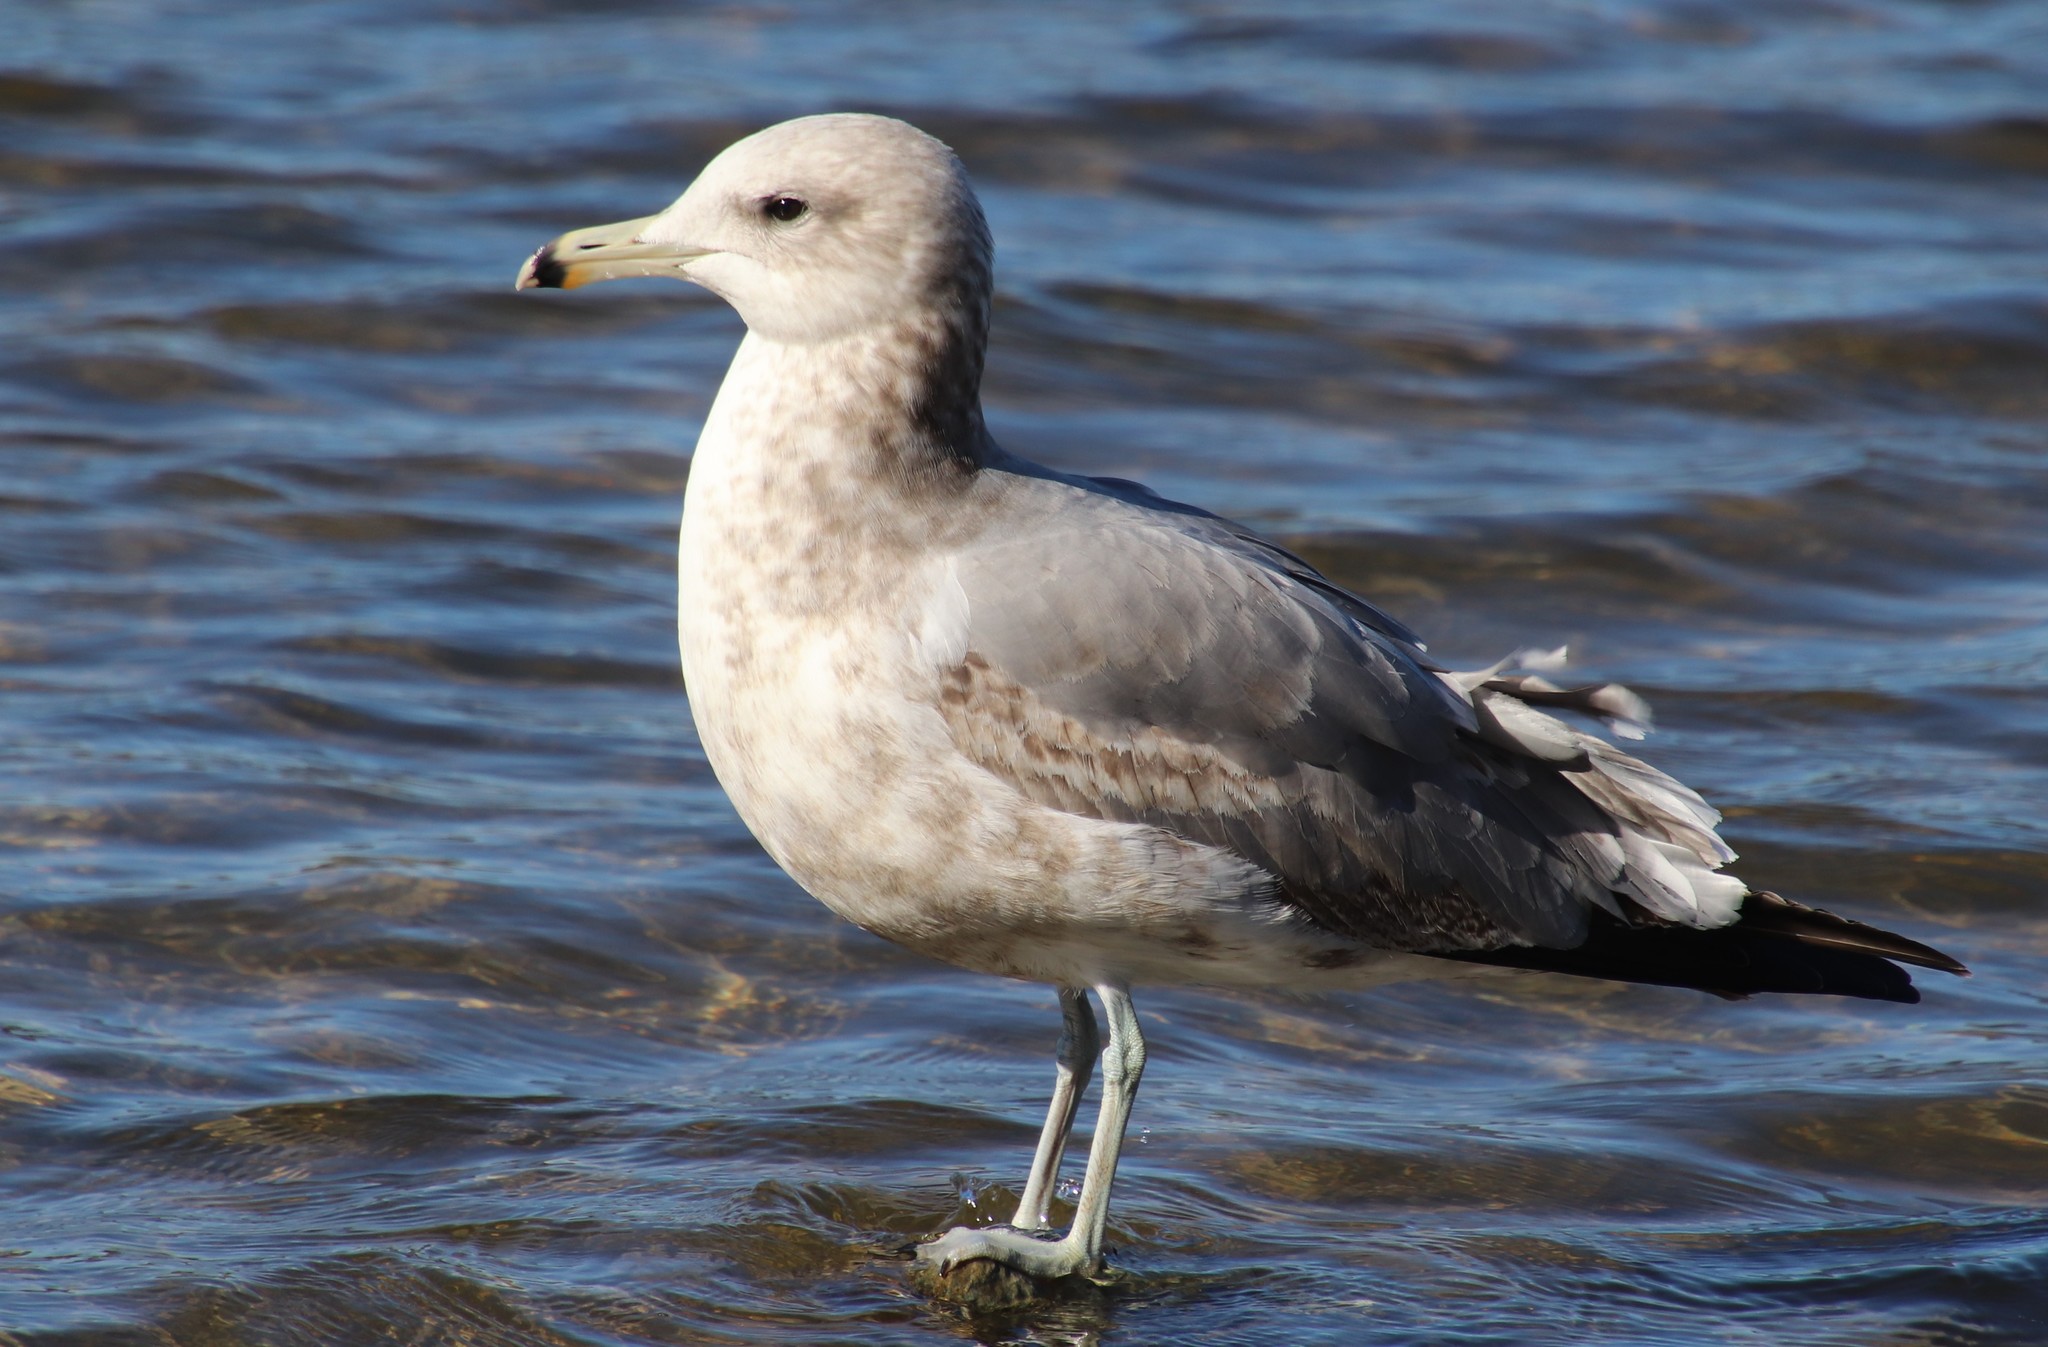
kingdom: Animalia
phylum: Chordata
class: Aves
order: Charadriiformes
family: Laridae
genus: Larus
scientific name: Larus californicus
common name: California gull
